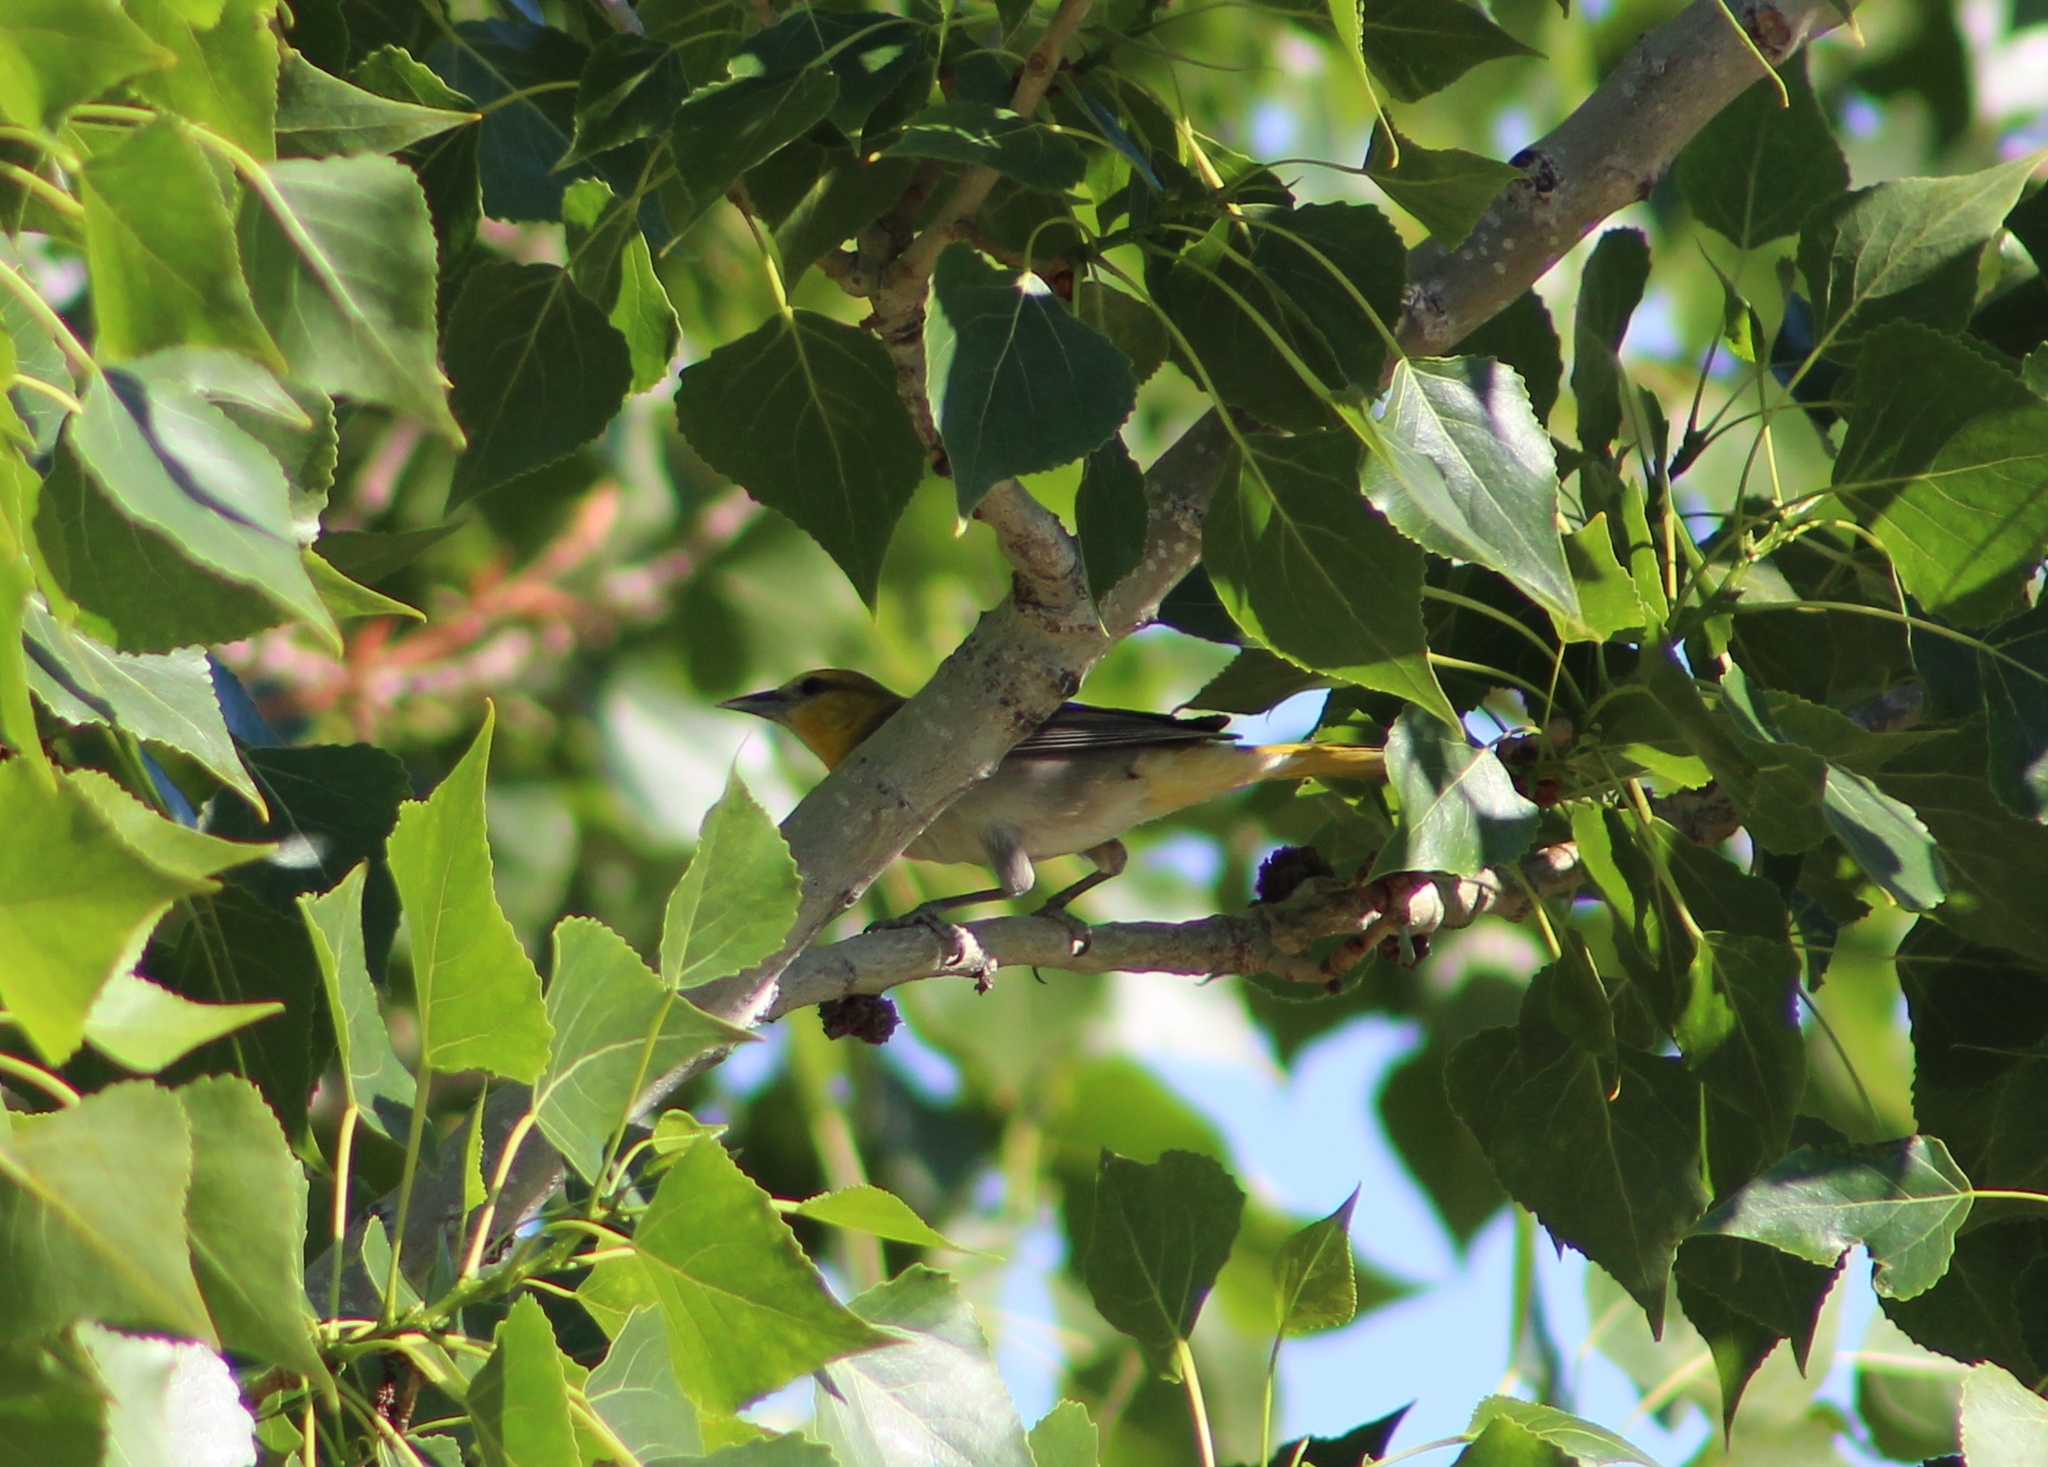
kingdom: Animalia
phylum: Chordata
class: Aves
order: Passeriformes
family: Icteridae
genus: Icterus
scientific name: Icterus bullockii
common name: Bullock's oriole
